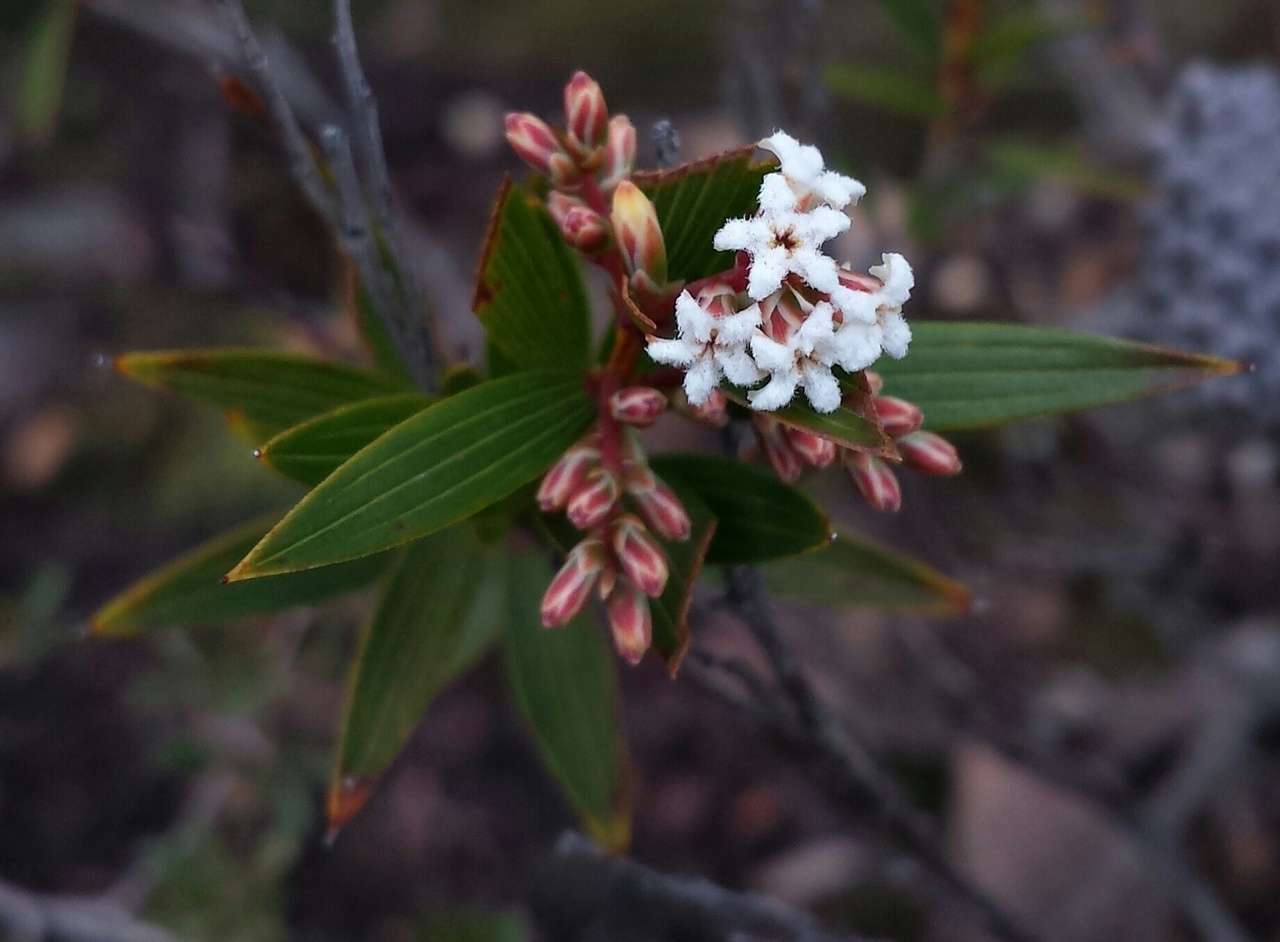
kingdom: Plantae
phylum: Tracheophyta
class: Magnoliopsida
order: Ericales
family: Ericaceae
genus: Leucopogon
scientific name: Leucopogon neurophyllus
